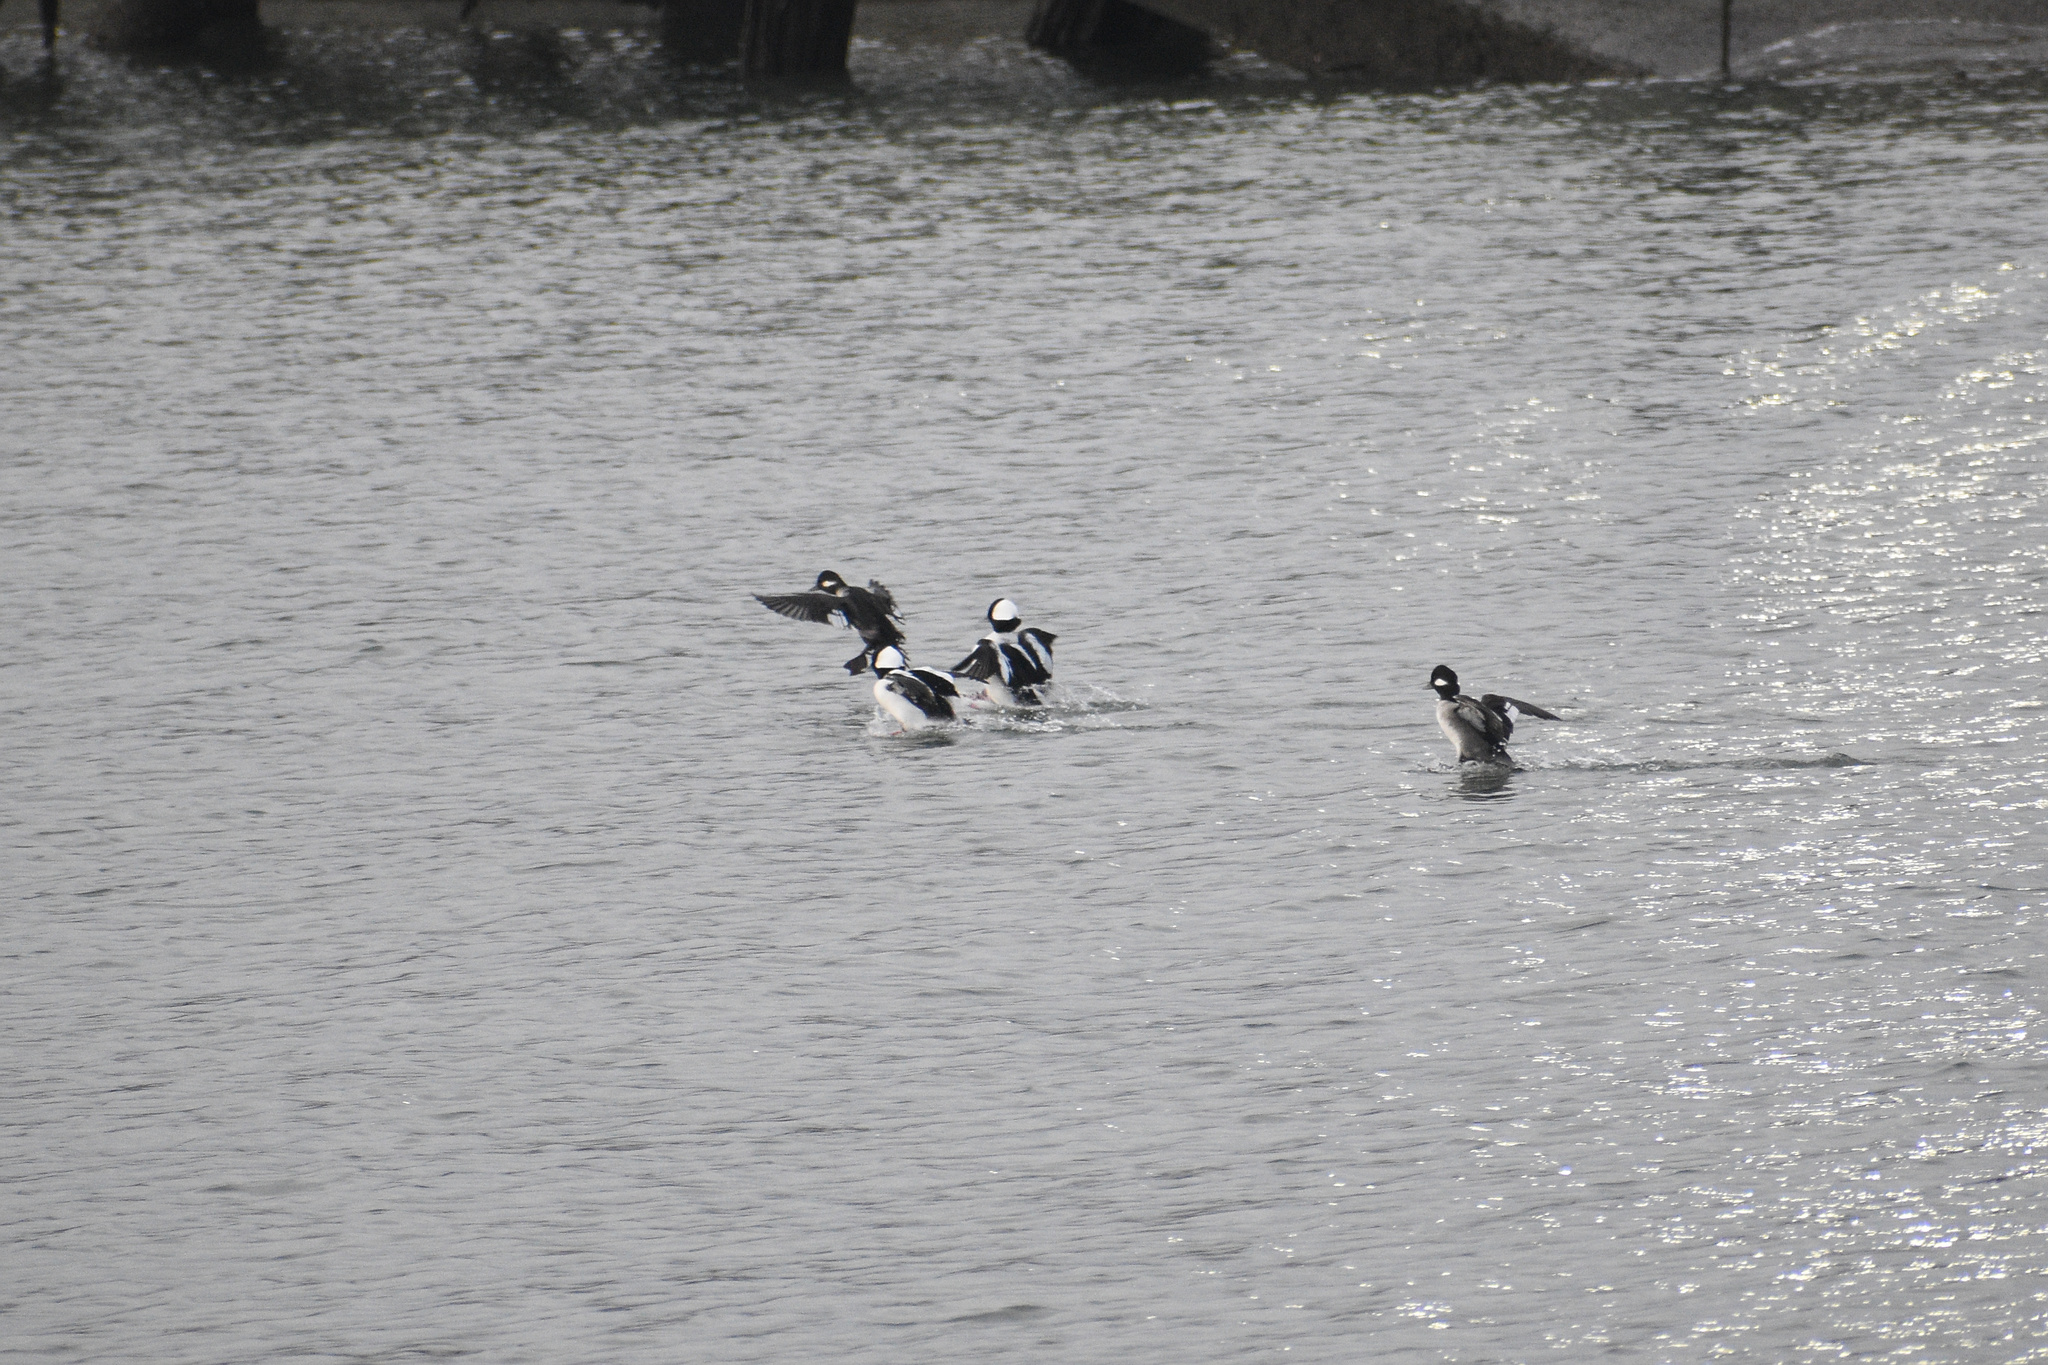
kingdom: Animalia
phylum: Chordata
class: Aves
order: Anseriformes
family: Anatidae
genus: Bucephala
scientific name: Bucephala albeola
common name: Bufflehead
